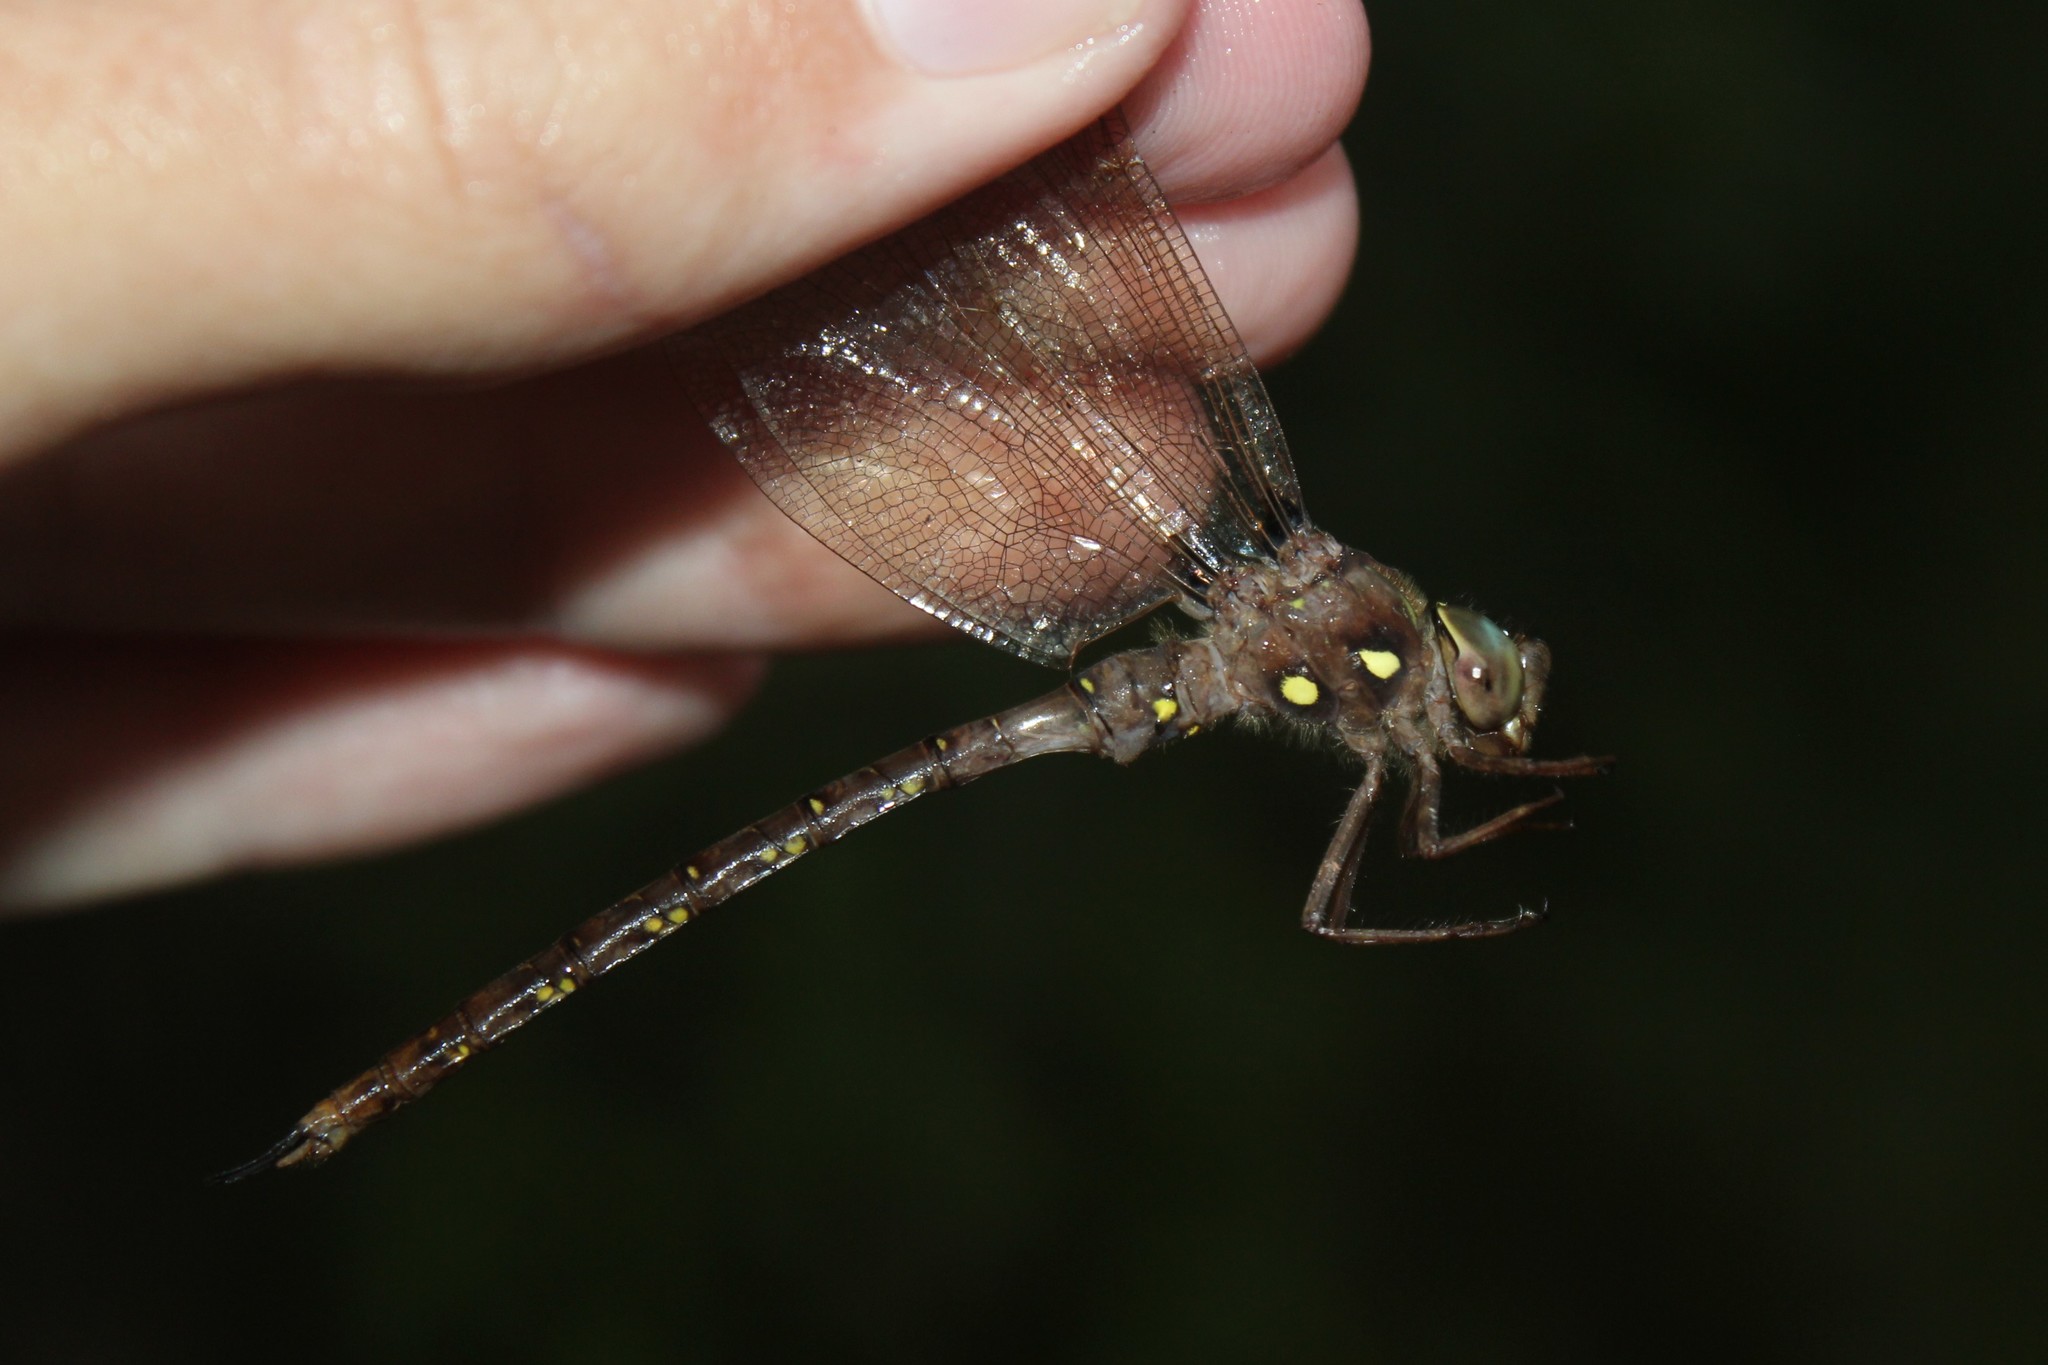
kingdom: Animalia
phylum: Arthropoda
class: Insecta
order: Odonata
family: Aeshnidae
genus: Boyeria
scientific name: Boyeria vinosa
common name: Fawn darner
